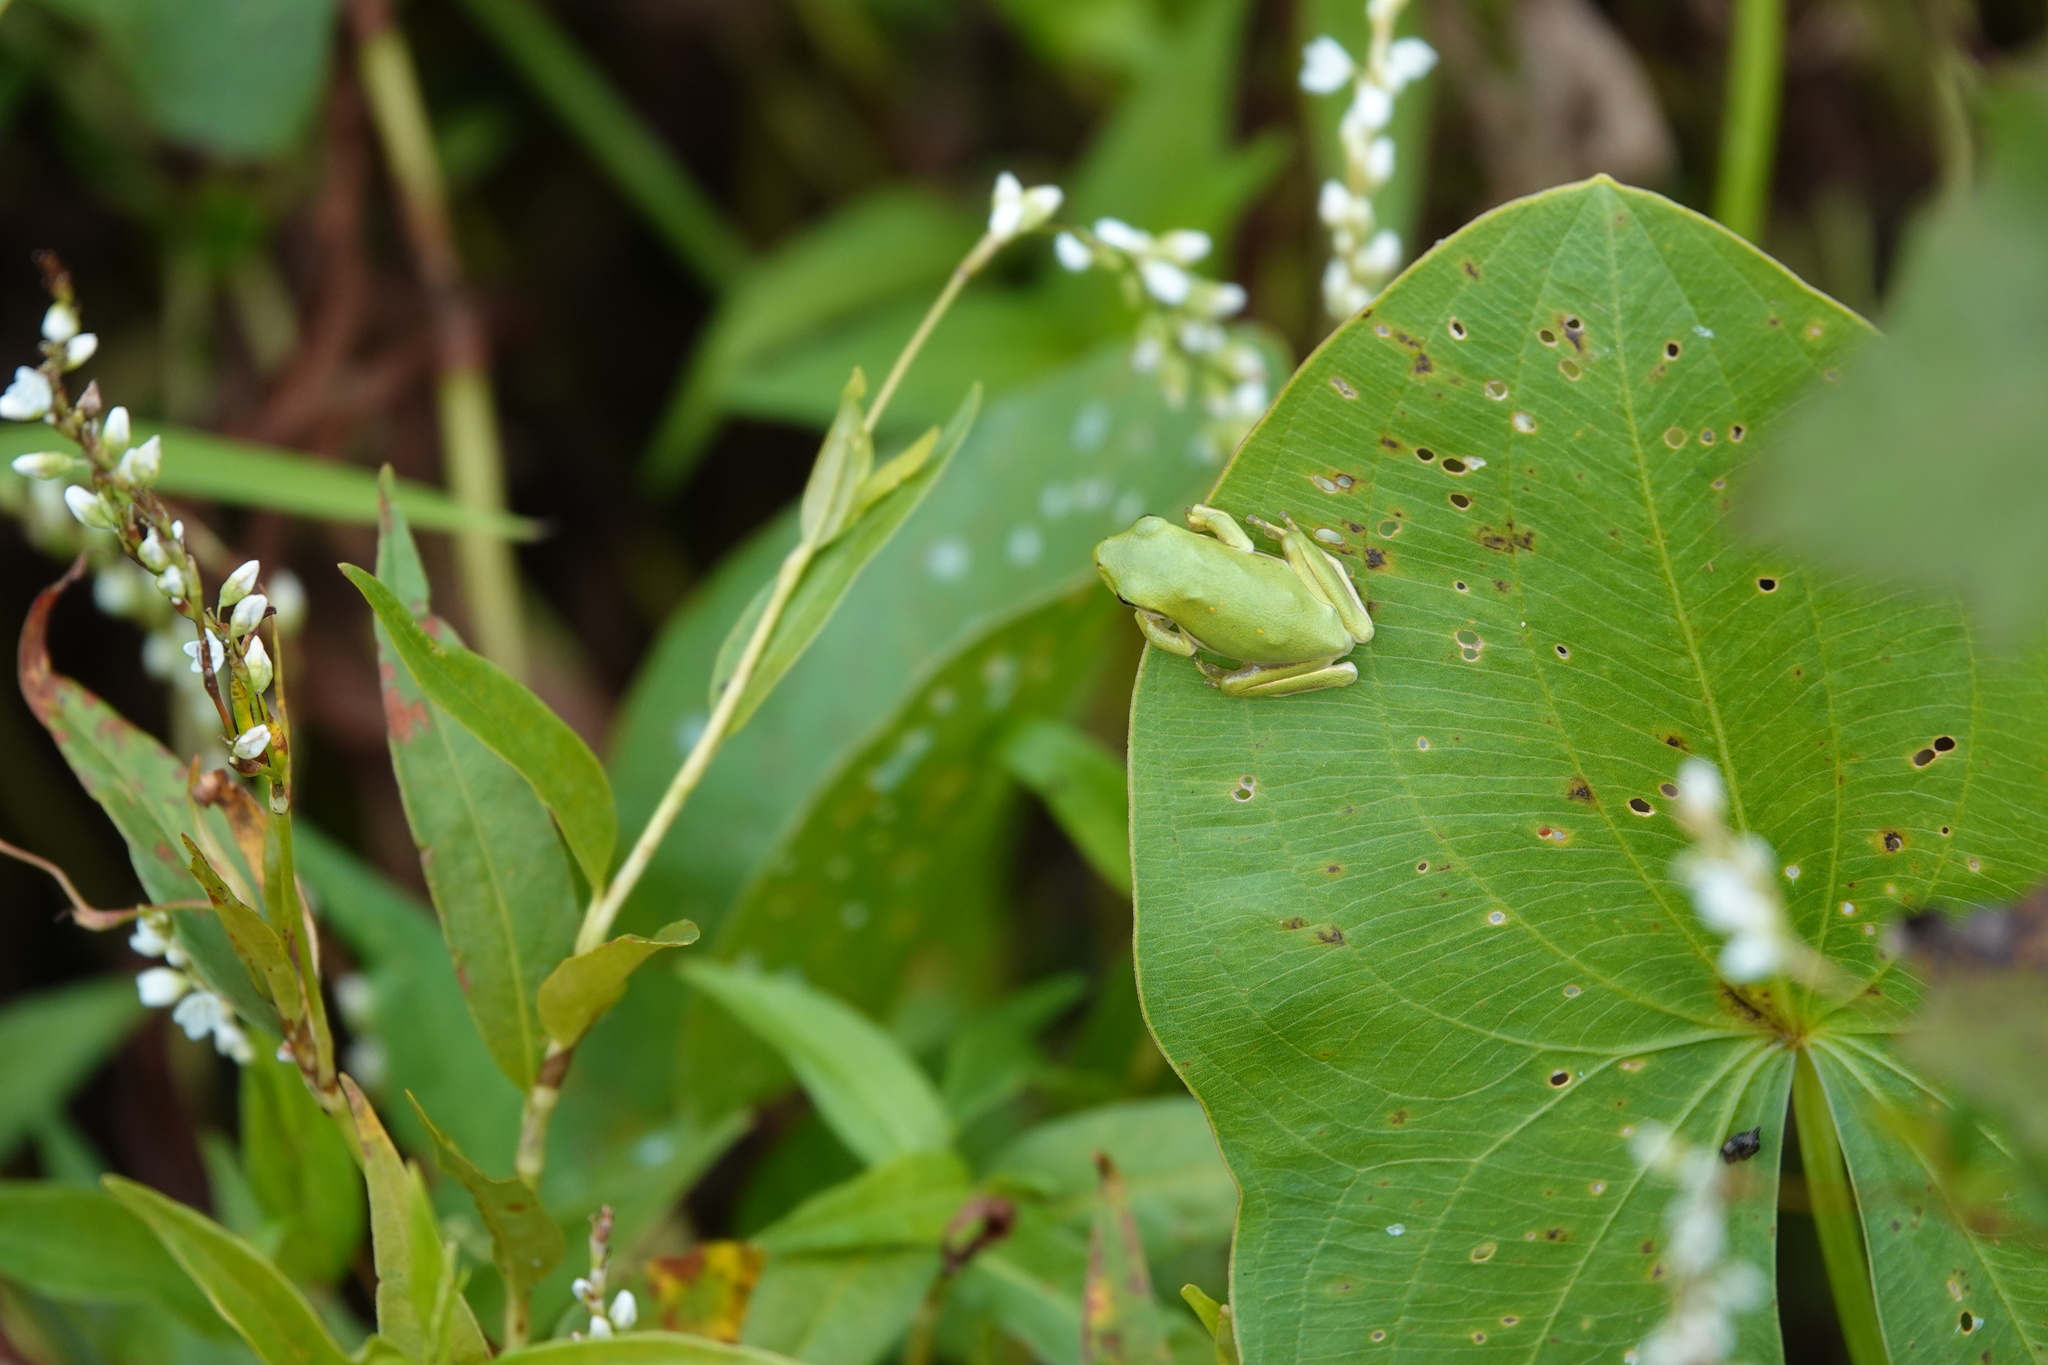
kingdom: Animalia
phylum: Chordata
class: Amphibia
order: Anura
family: Hylidae
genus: Dryophytes
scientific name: Dryophytes cinereus
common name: Green treefrog
